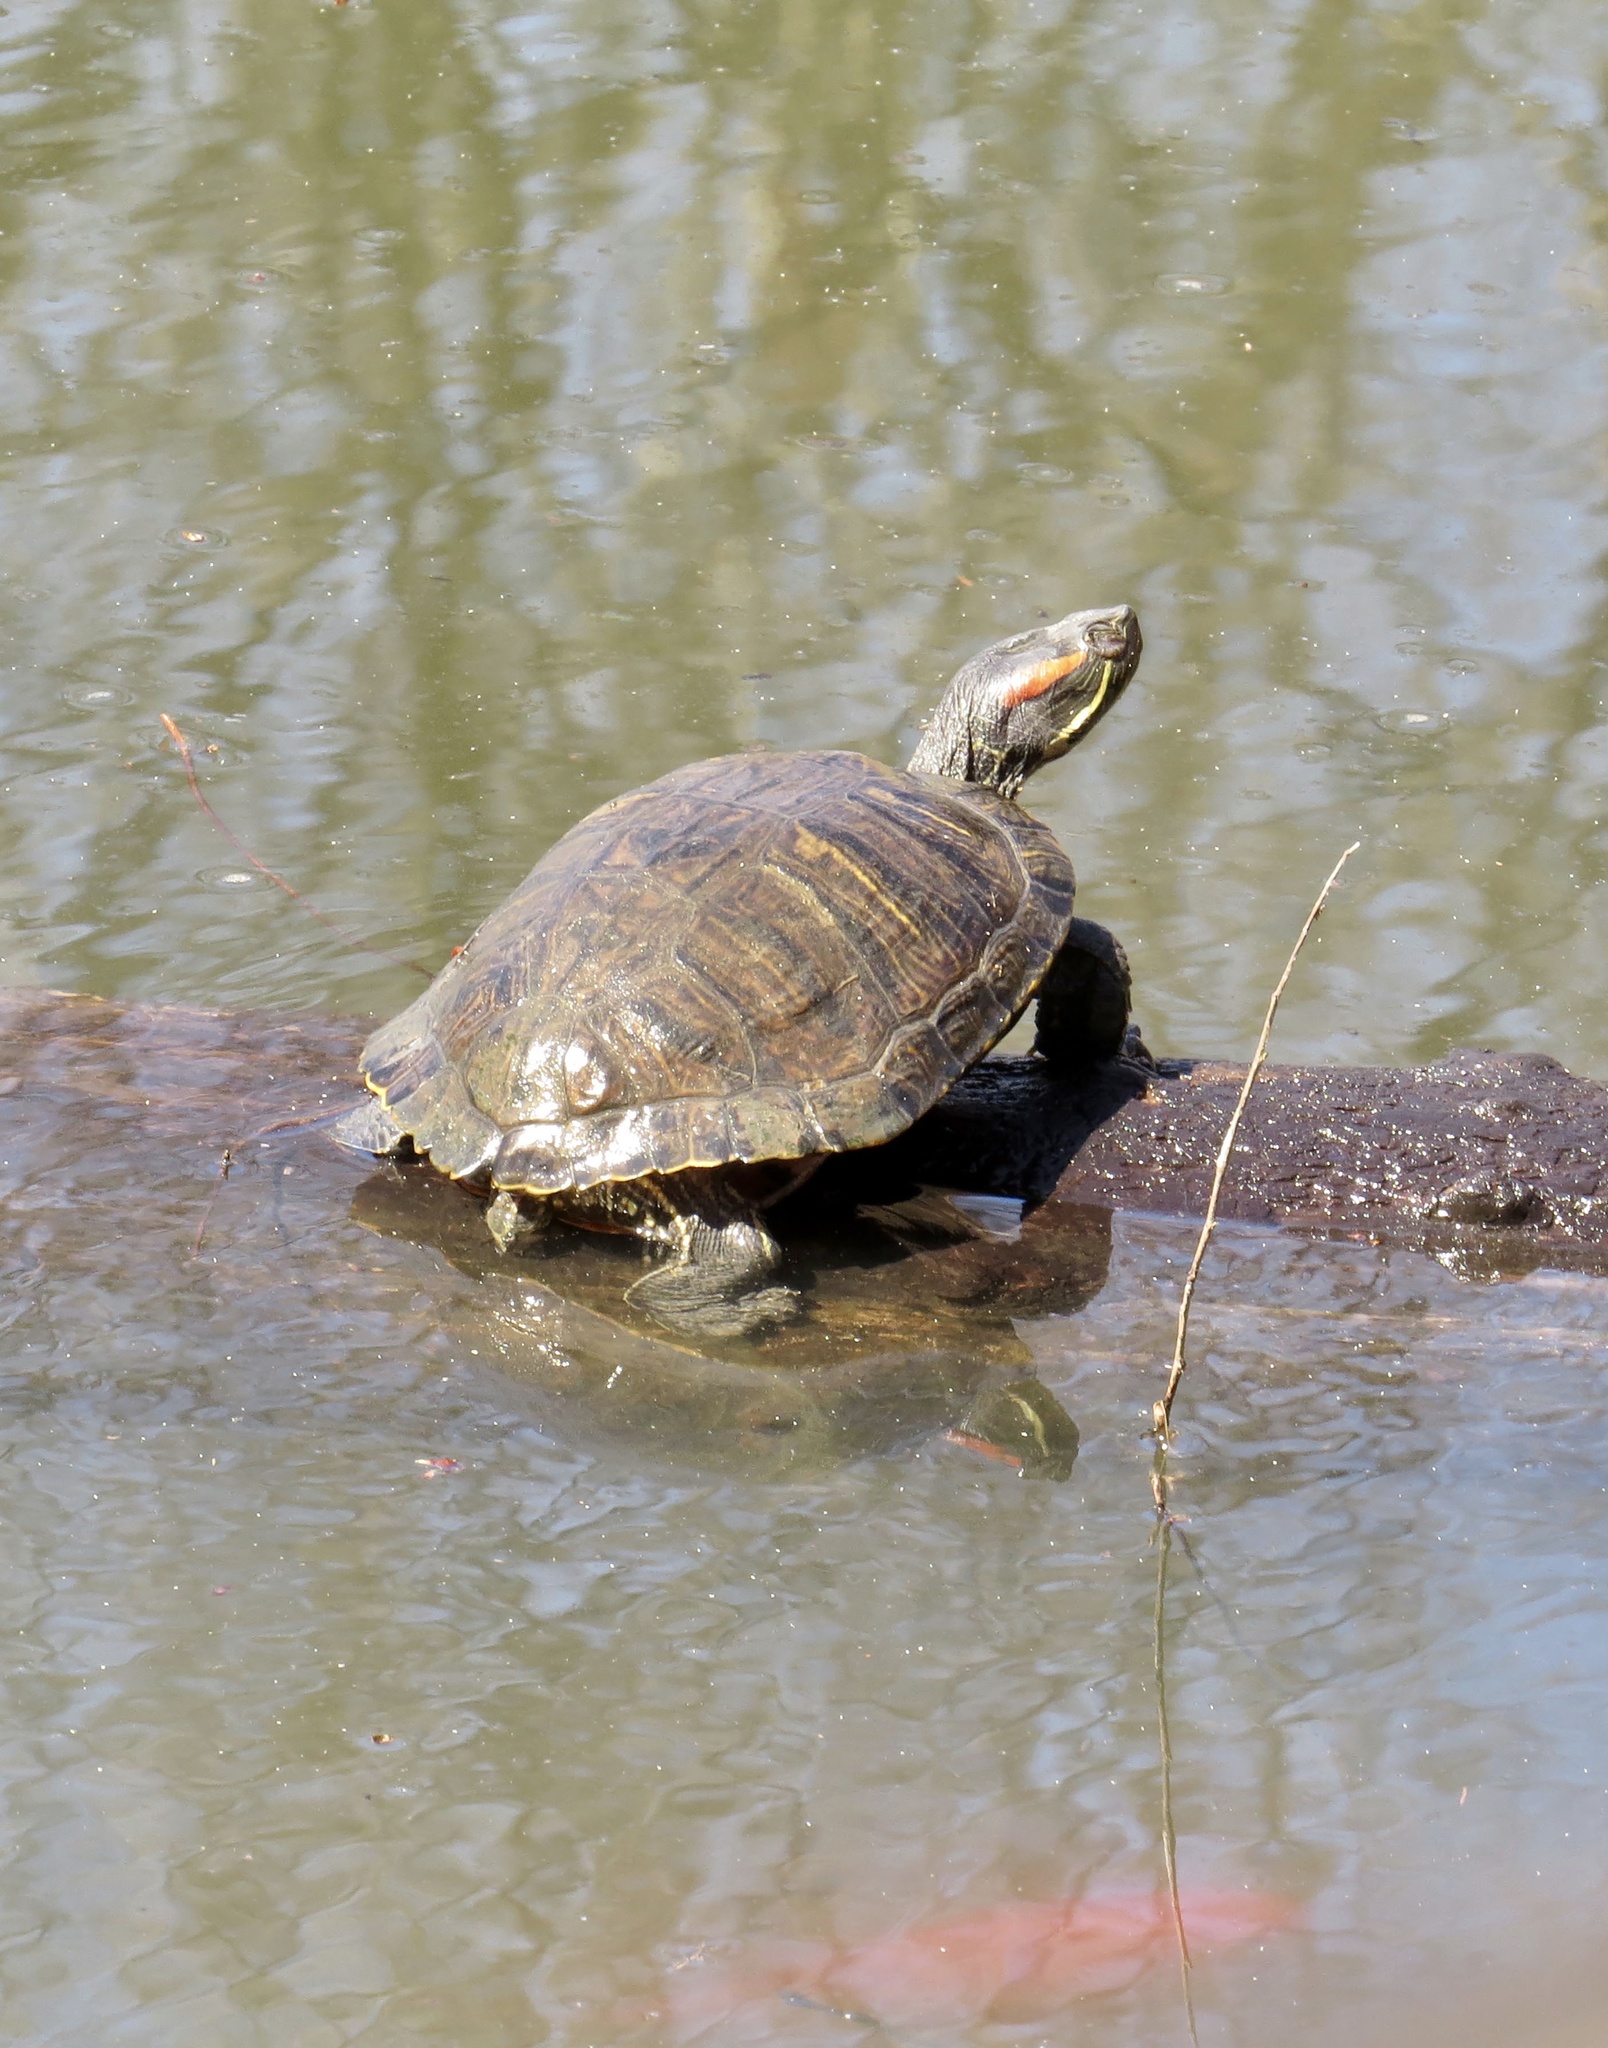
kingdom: Animalia
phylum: Chordata
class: Testudines
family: Emydidae
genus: Trachemys
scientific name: Trachemys scripta
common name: Slider
